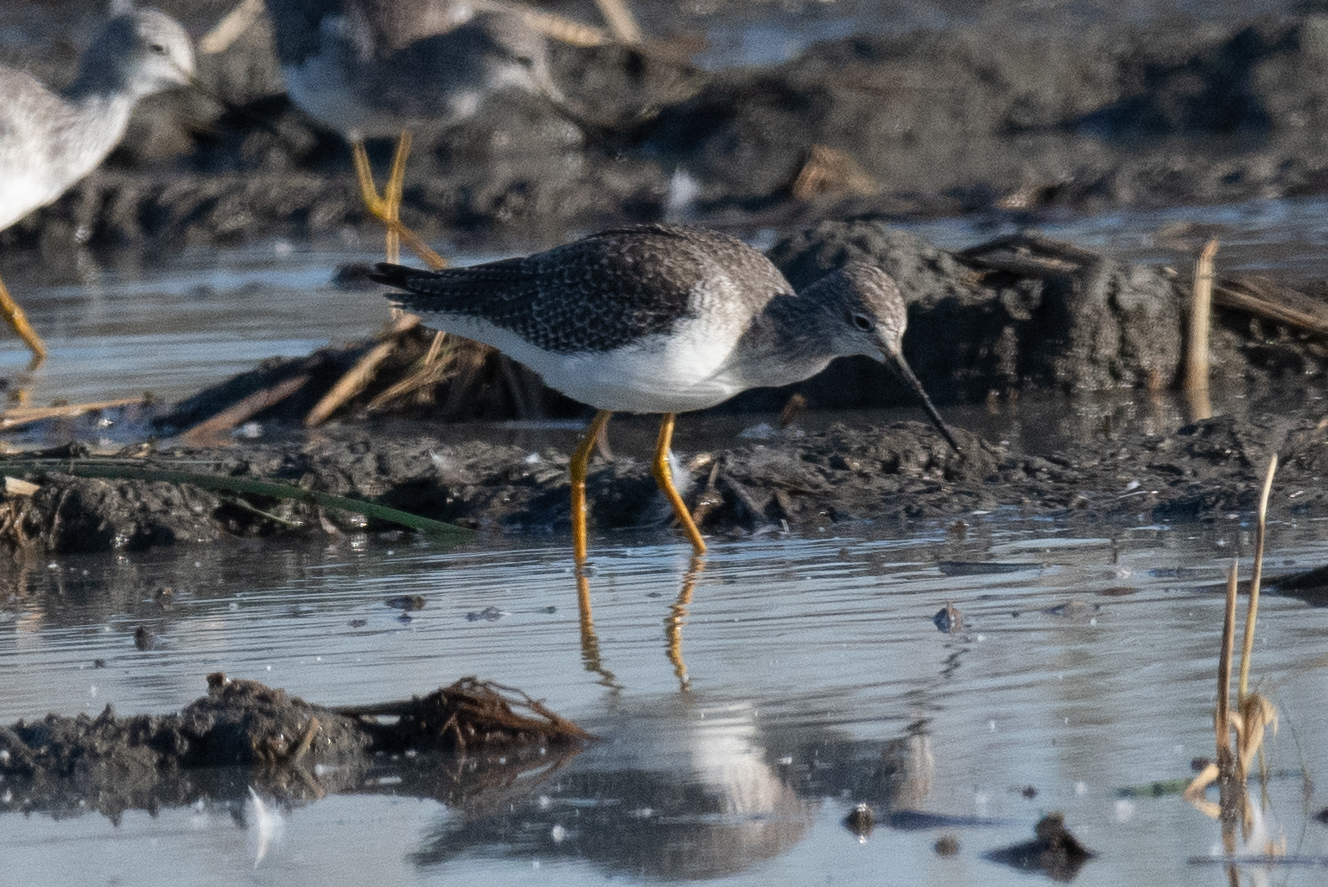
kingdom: Animalia
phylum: Chordata
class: Aves
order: Charadriiformes
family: Scolopacidae
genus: Tringa
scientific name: Tringa flavipes
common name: Lesser yellowlegs
